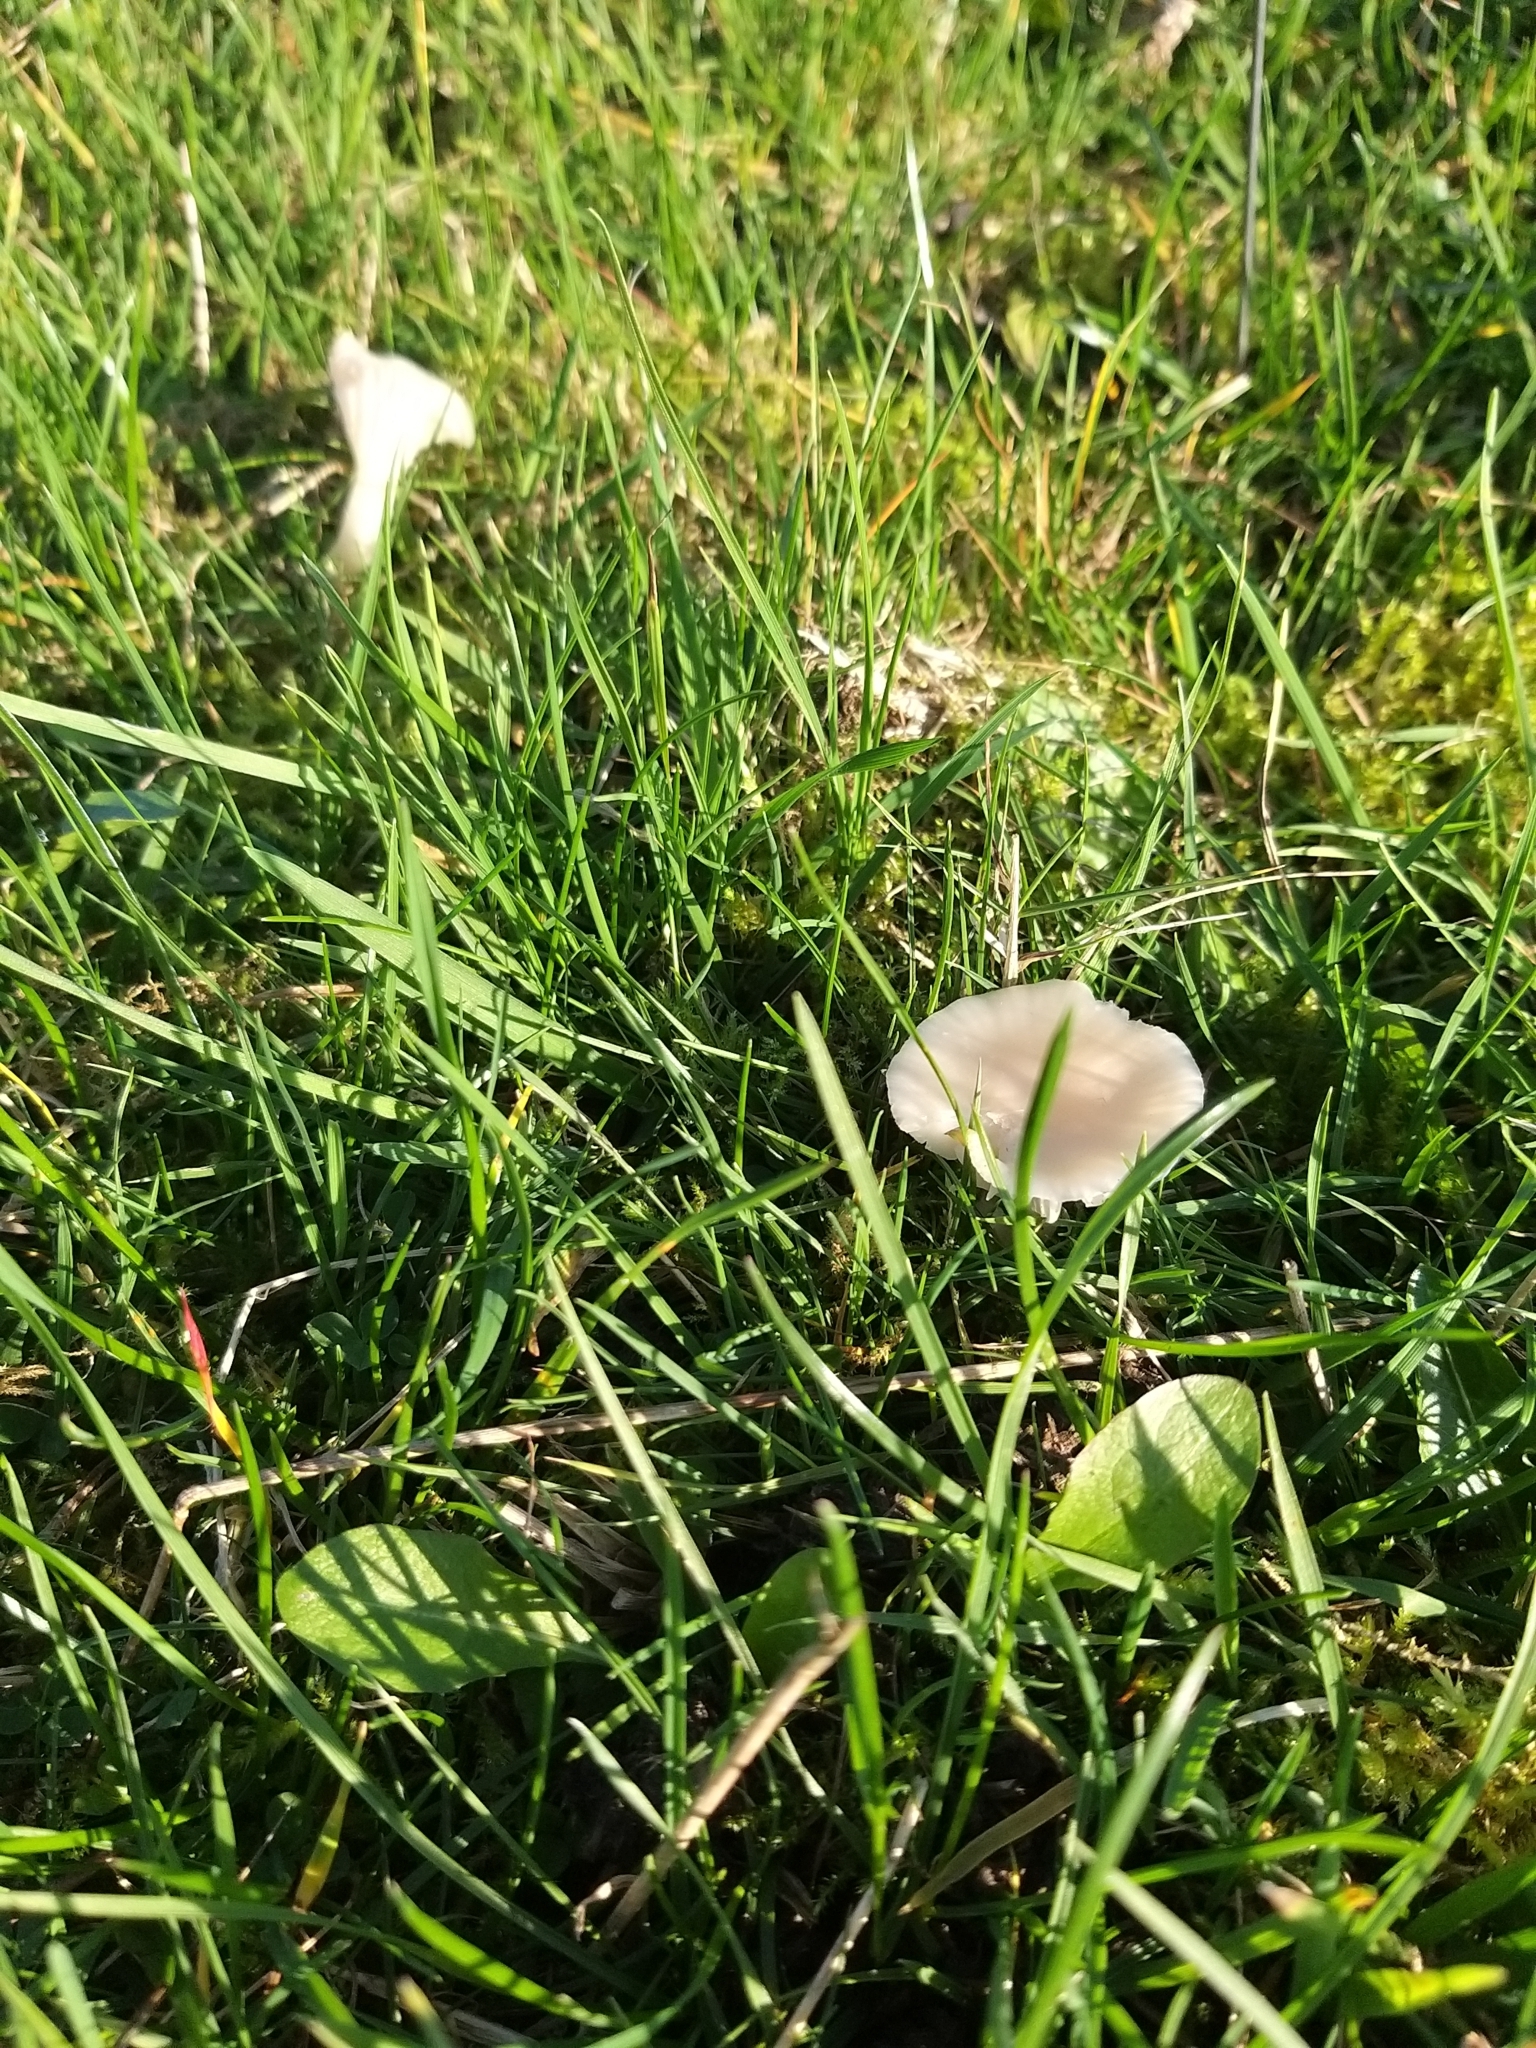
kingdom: Fungi
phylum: Basidiomycota
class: Agaricomycetes
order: Agaricales
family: Hygrophoraceae
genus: Cuphophyllus
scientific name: Cuphophyllus virgineus
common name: Snowy waxcap
